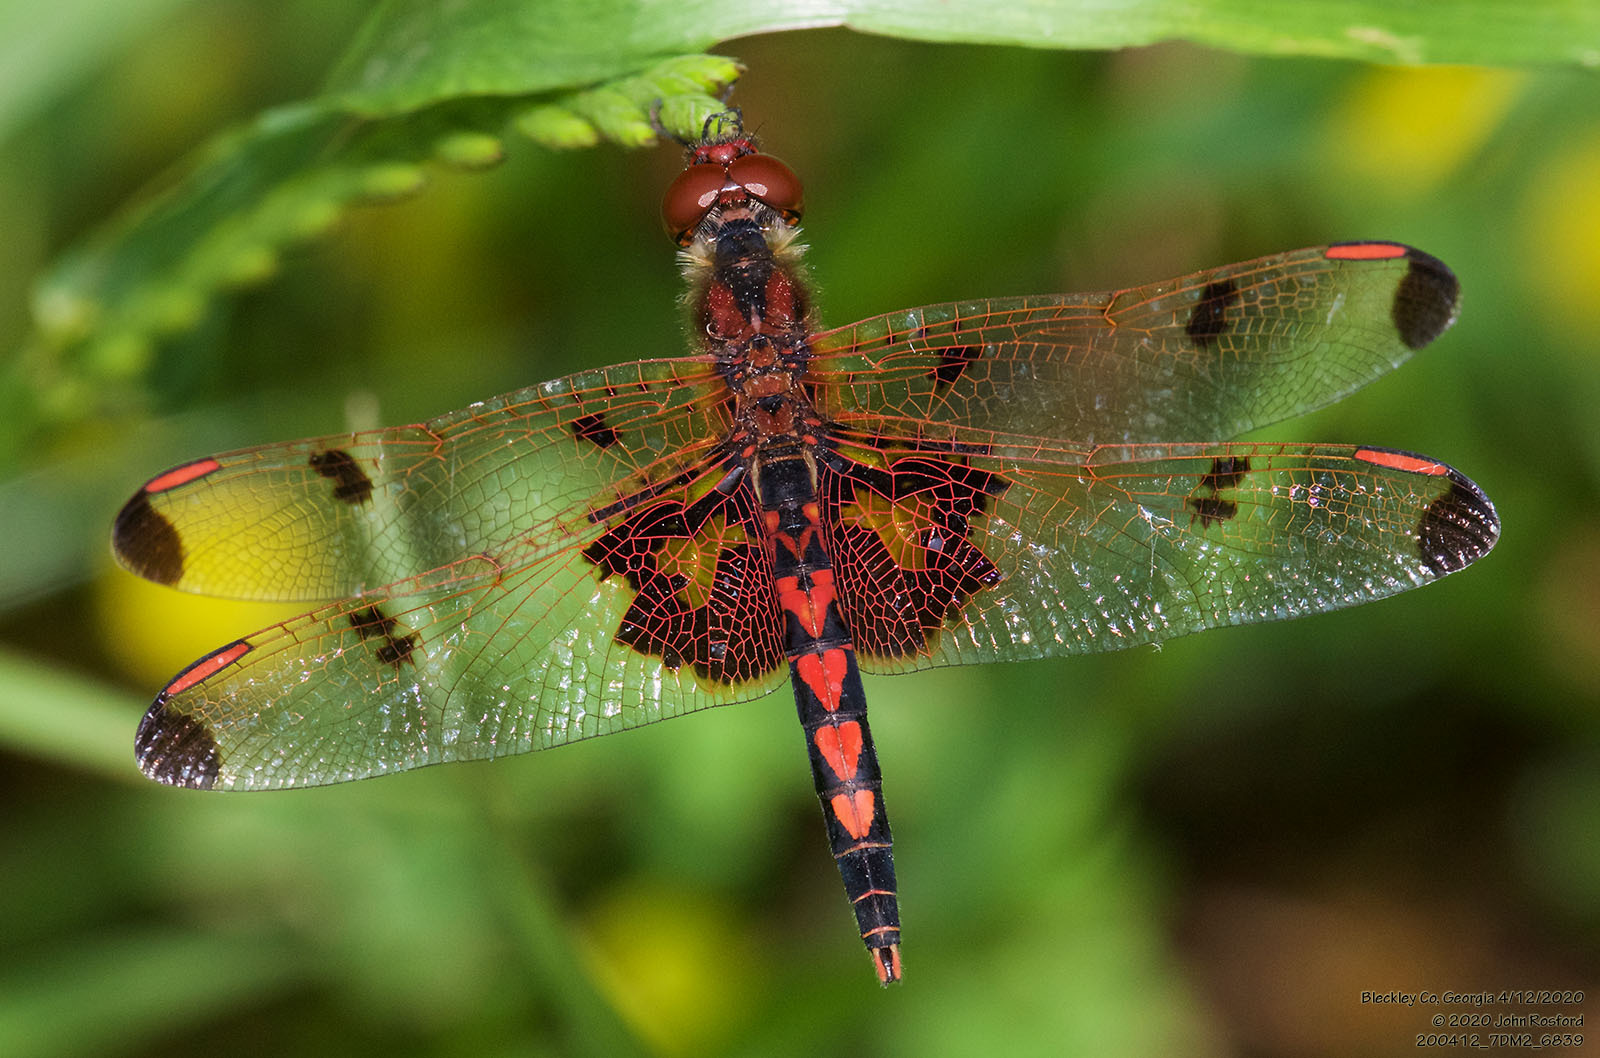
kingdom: Animalia
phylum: Arthropoda
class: Insecta
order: Odonata
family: Libellulidae
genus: Celithemis
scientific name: Celithemis elisa
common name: Calico pennant
